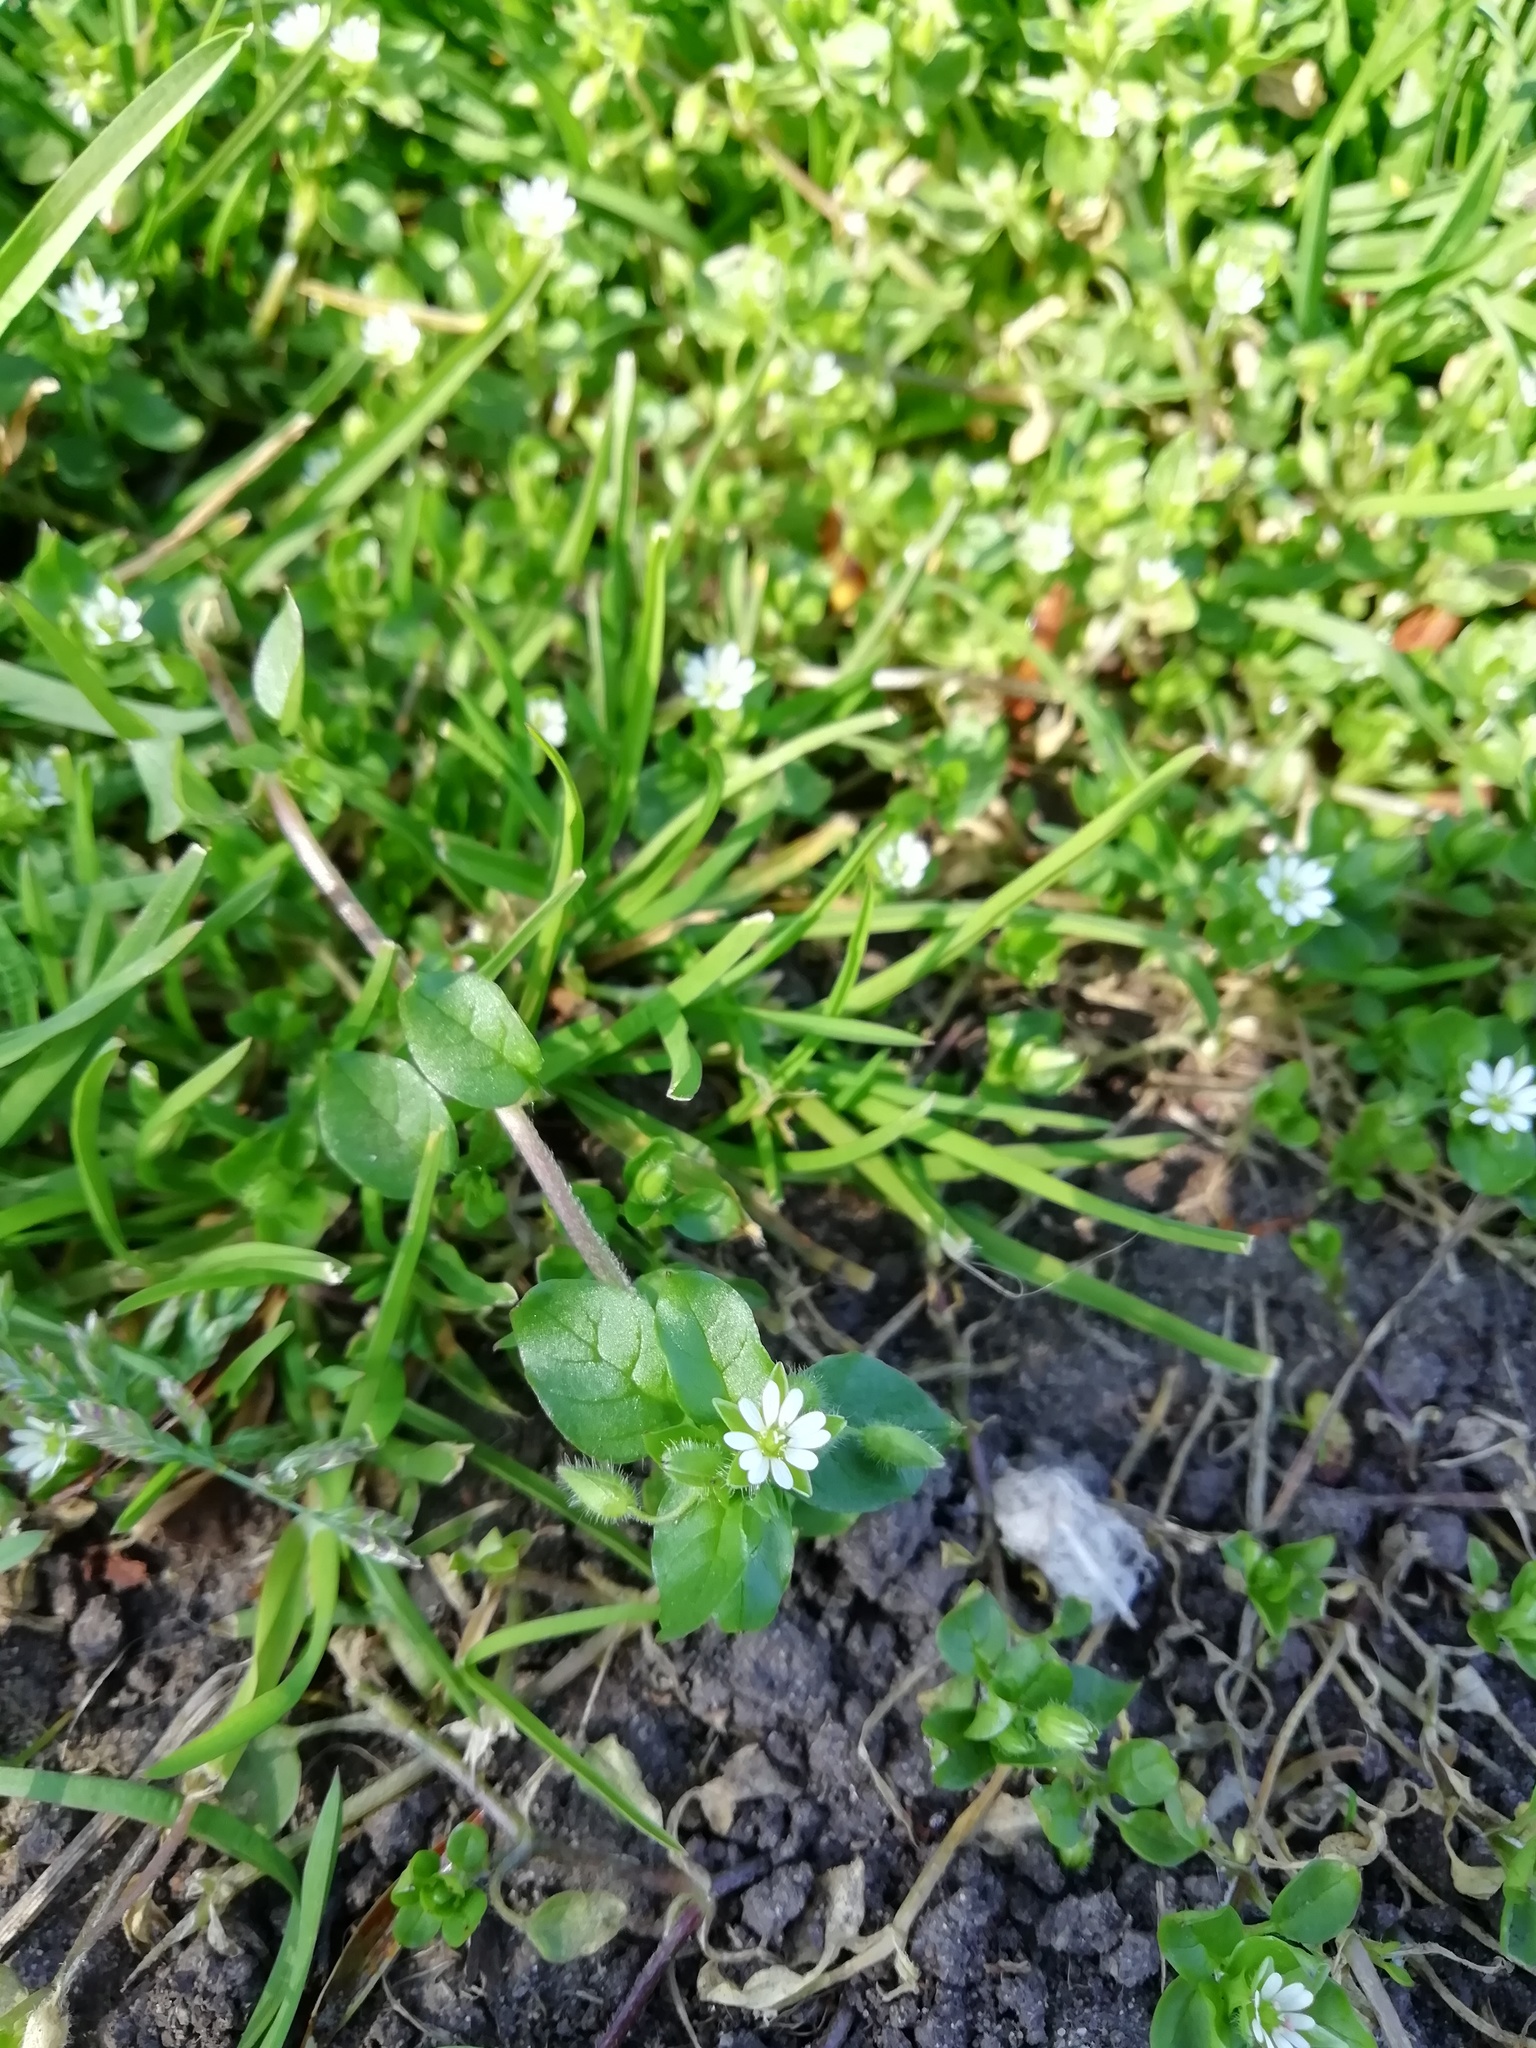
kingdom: Plantae
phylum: Tracheophyta
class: Magnoliopsida
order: Caryophyllales
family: Caryophyllaceae
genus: Stellaria
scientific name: Stellaria media
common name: Common chickweed
